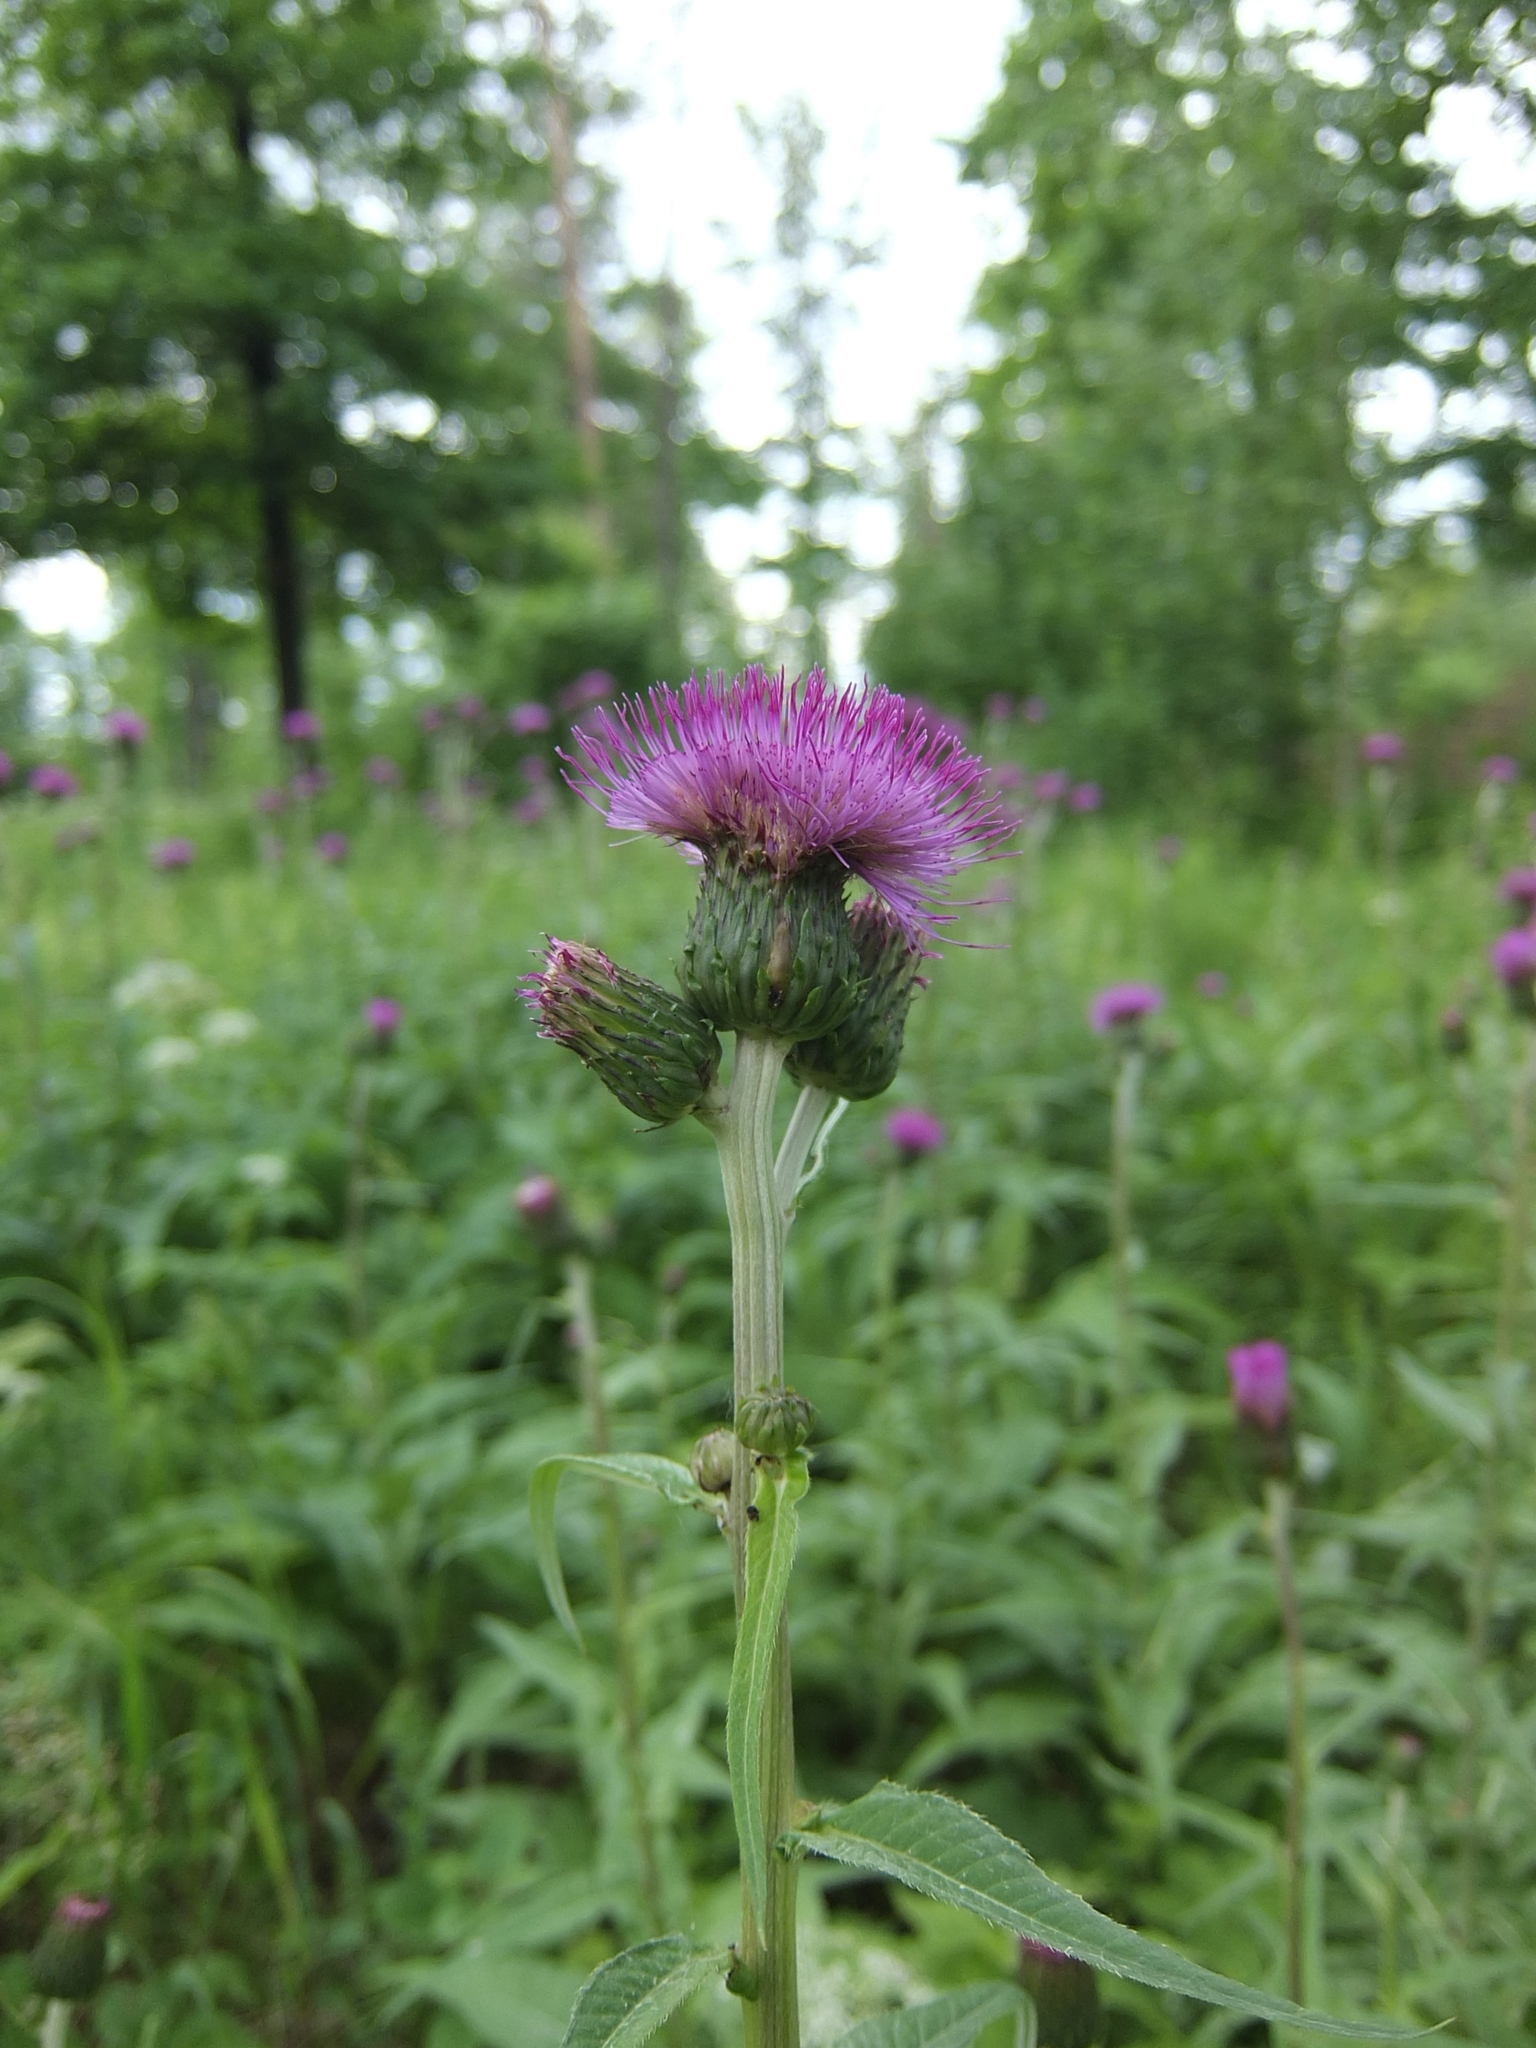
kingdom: Plantae
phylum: Tracheophyta
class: Magnoliopsida
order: Asterales
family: Asteraceae
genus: Cirsium
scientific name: Cirsium heterophyllum
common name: Melancholy thistle
